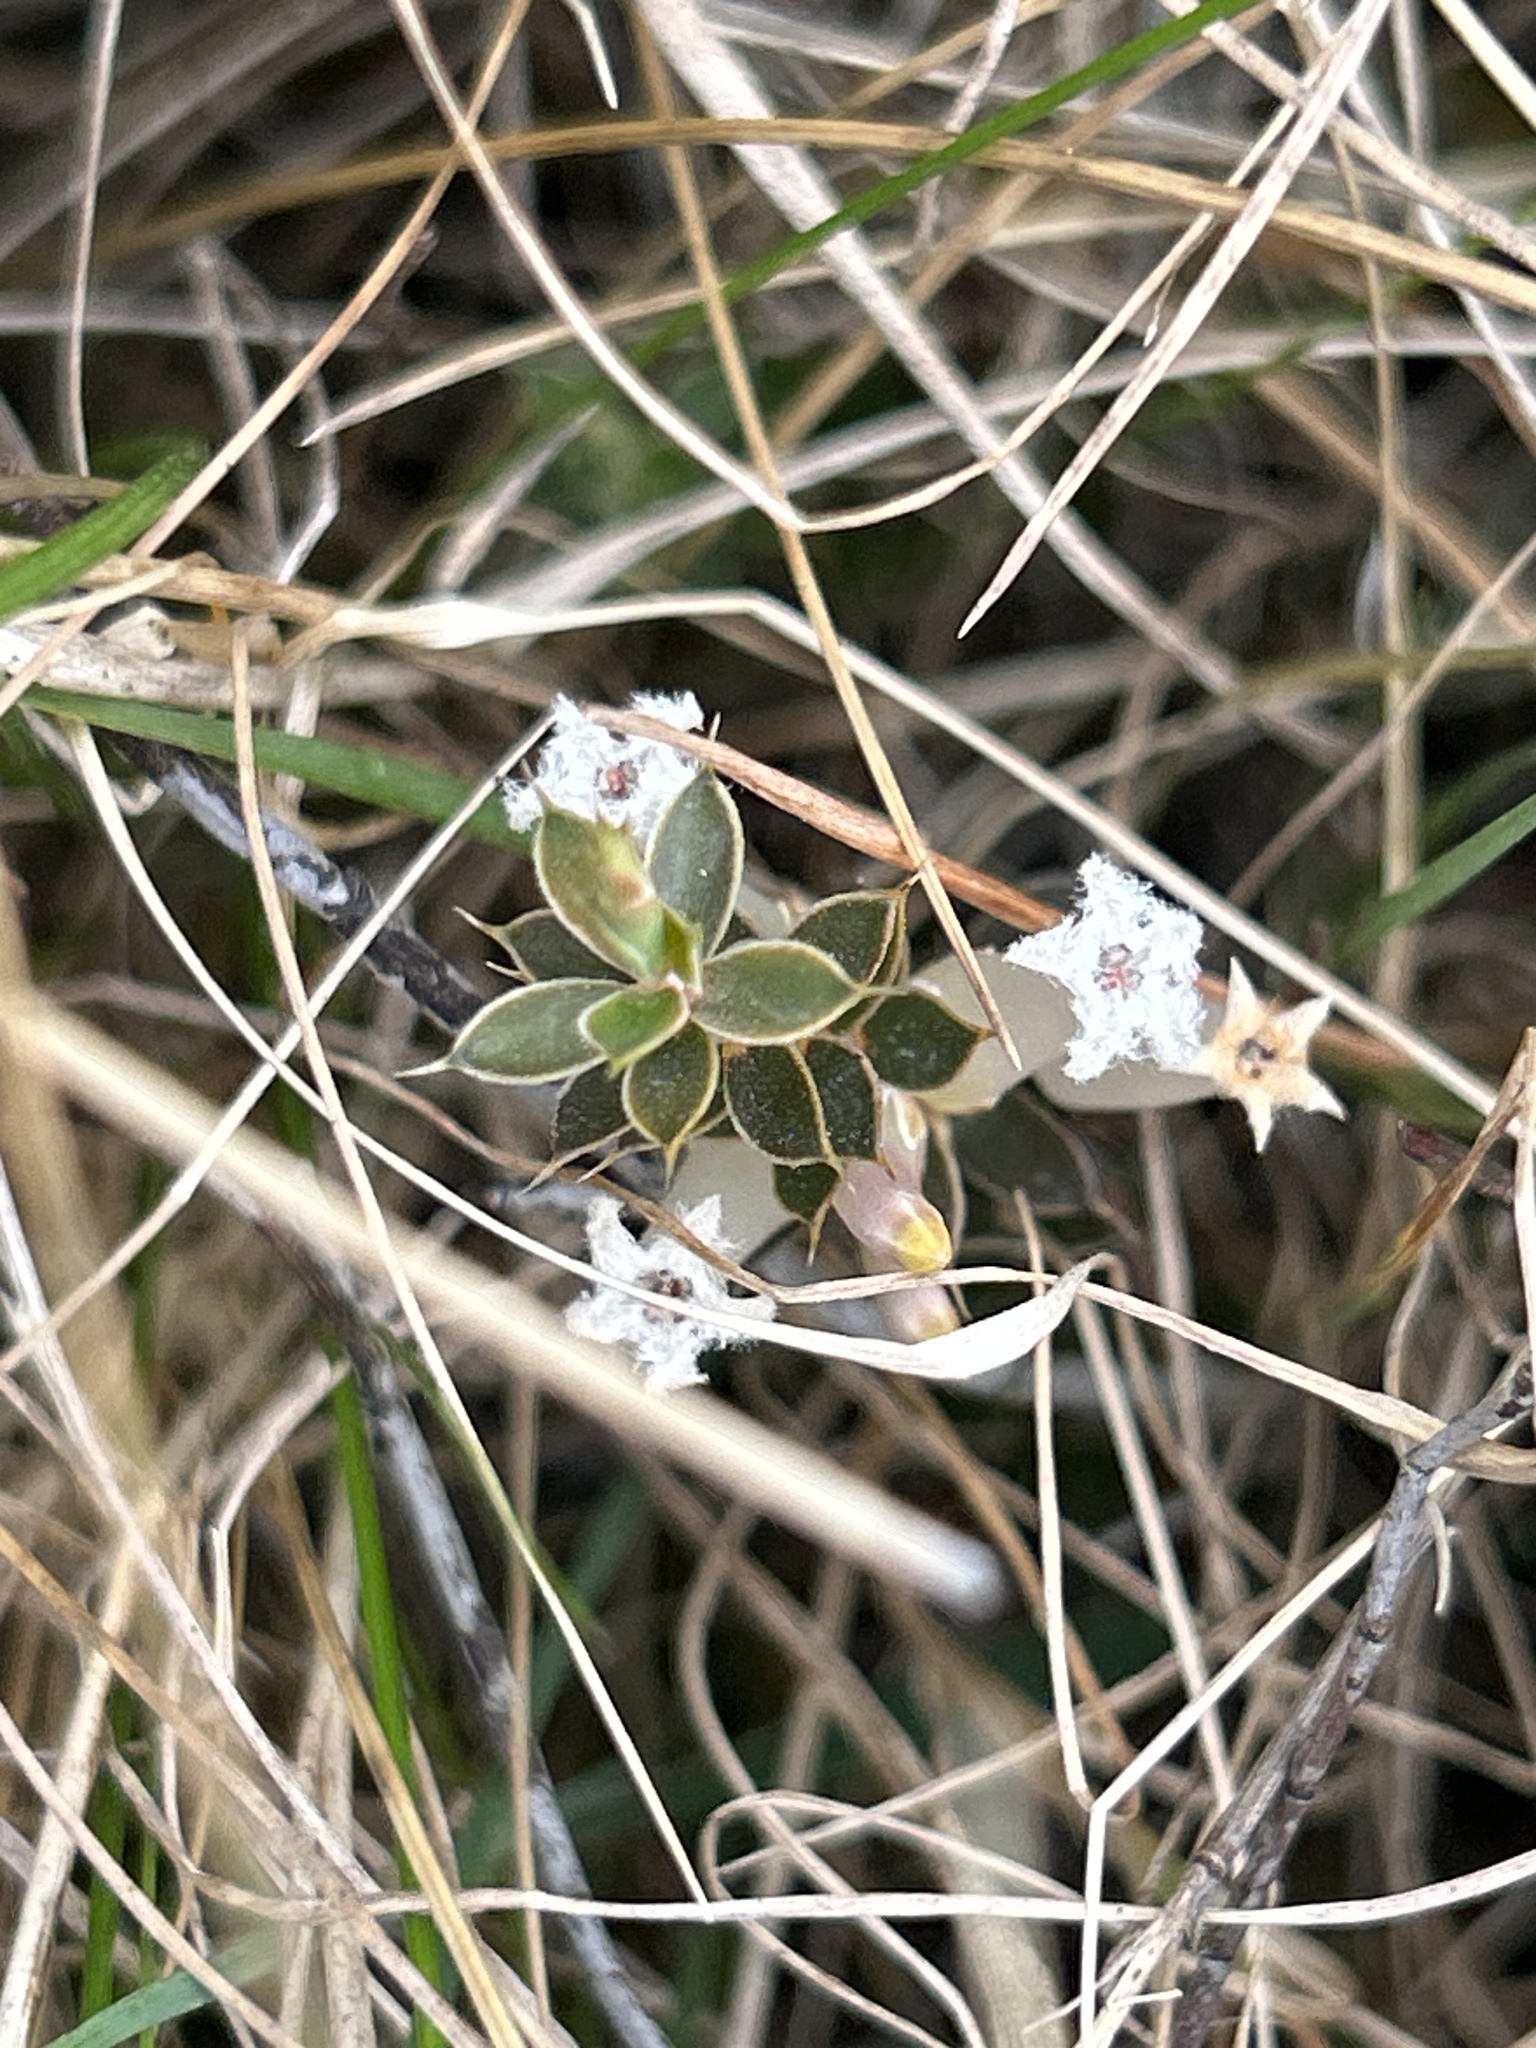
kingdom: Plantae
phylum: Tracheophyta
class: Magnoliopsida
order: Ericales
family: Ericaceae
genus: Styphelia
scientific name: Styphelia nesophila
